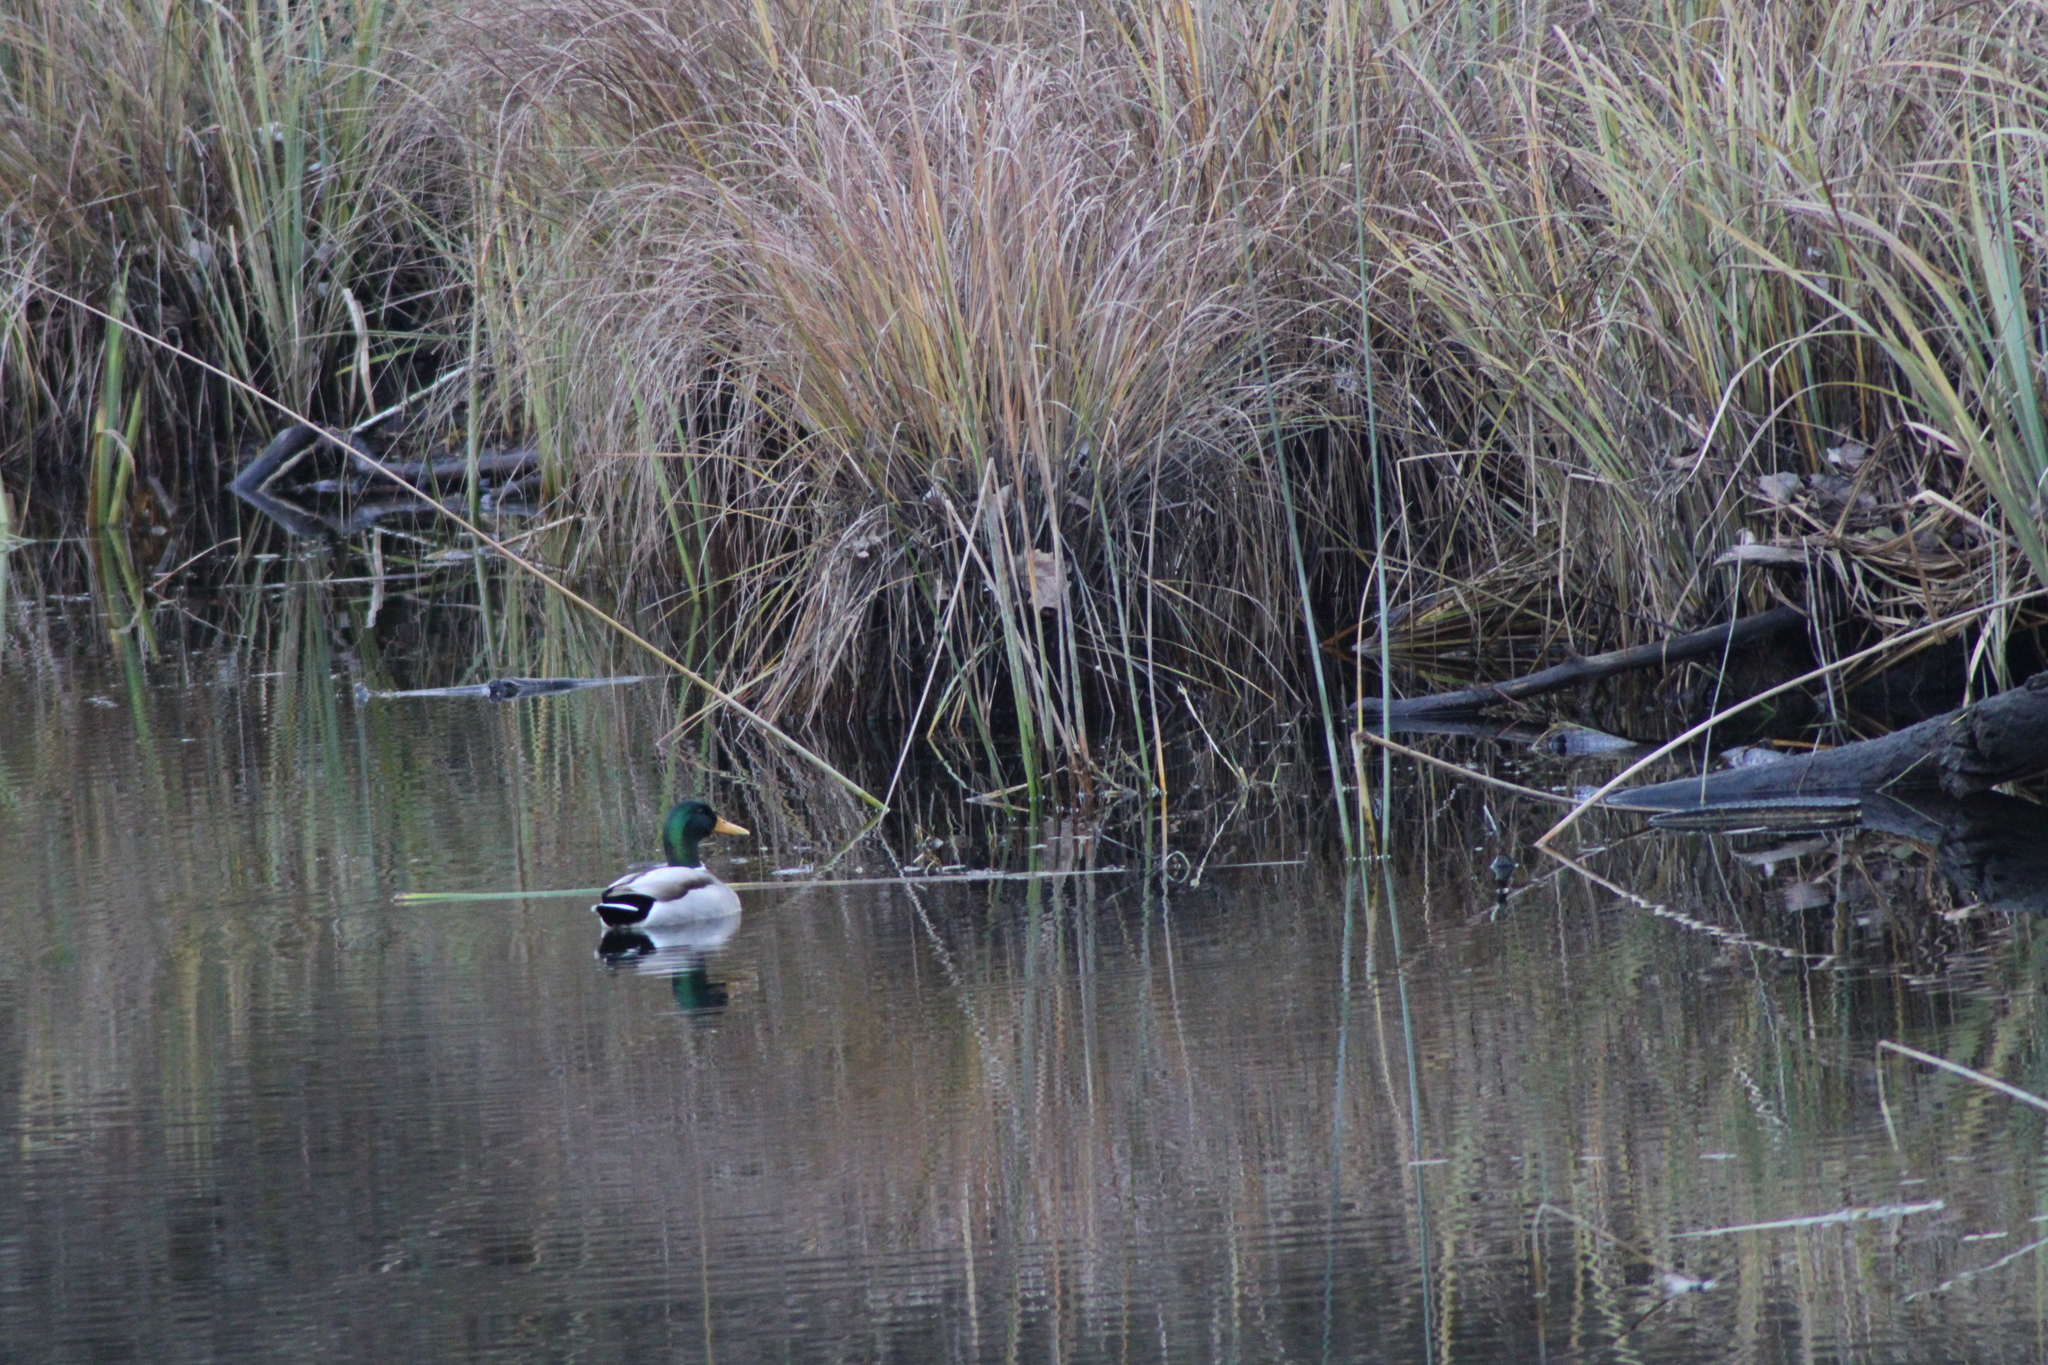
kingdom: Animalia
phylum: Chordata
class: Aves
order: Anseriformes
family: Anatidae
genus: Anas
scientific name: Anas platyrhynchos
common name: Mallard
